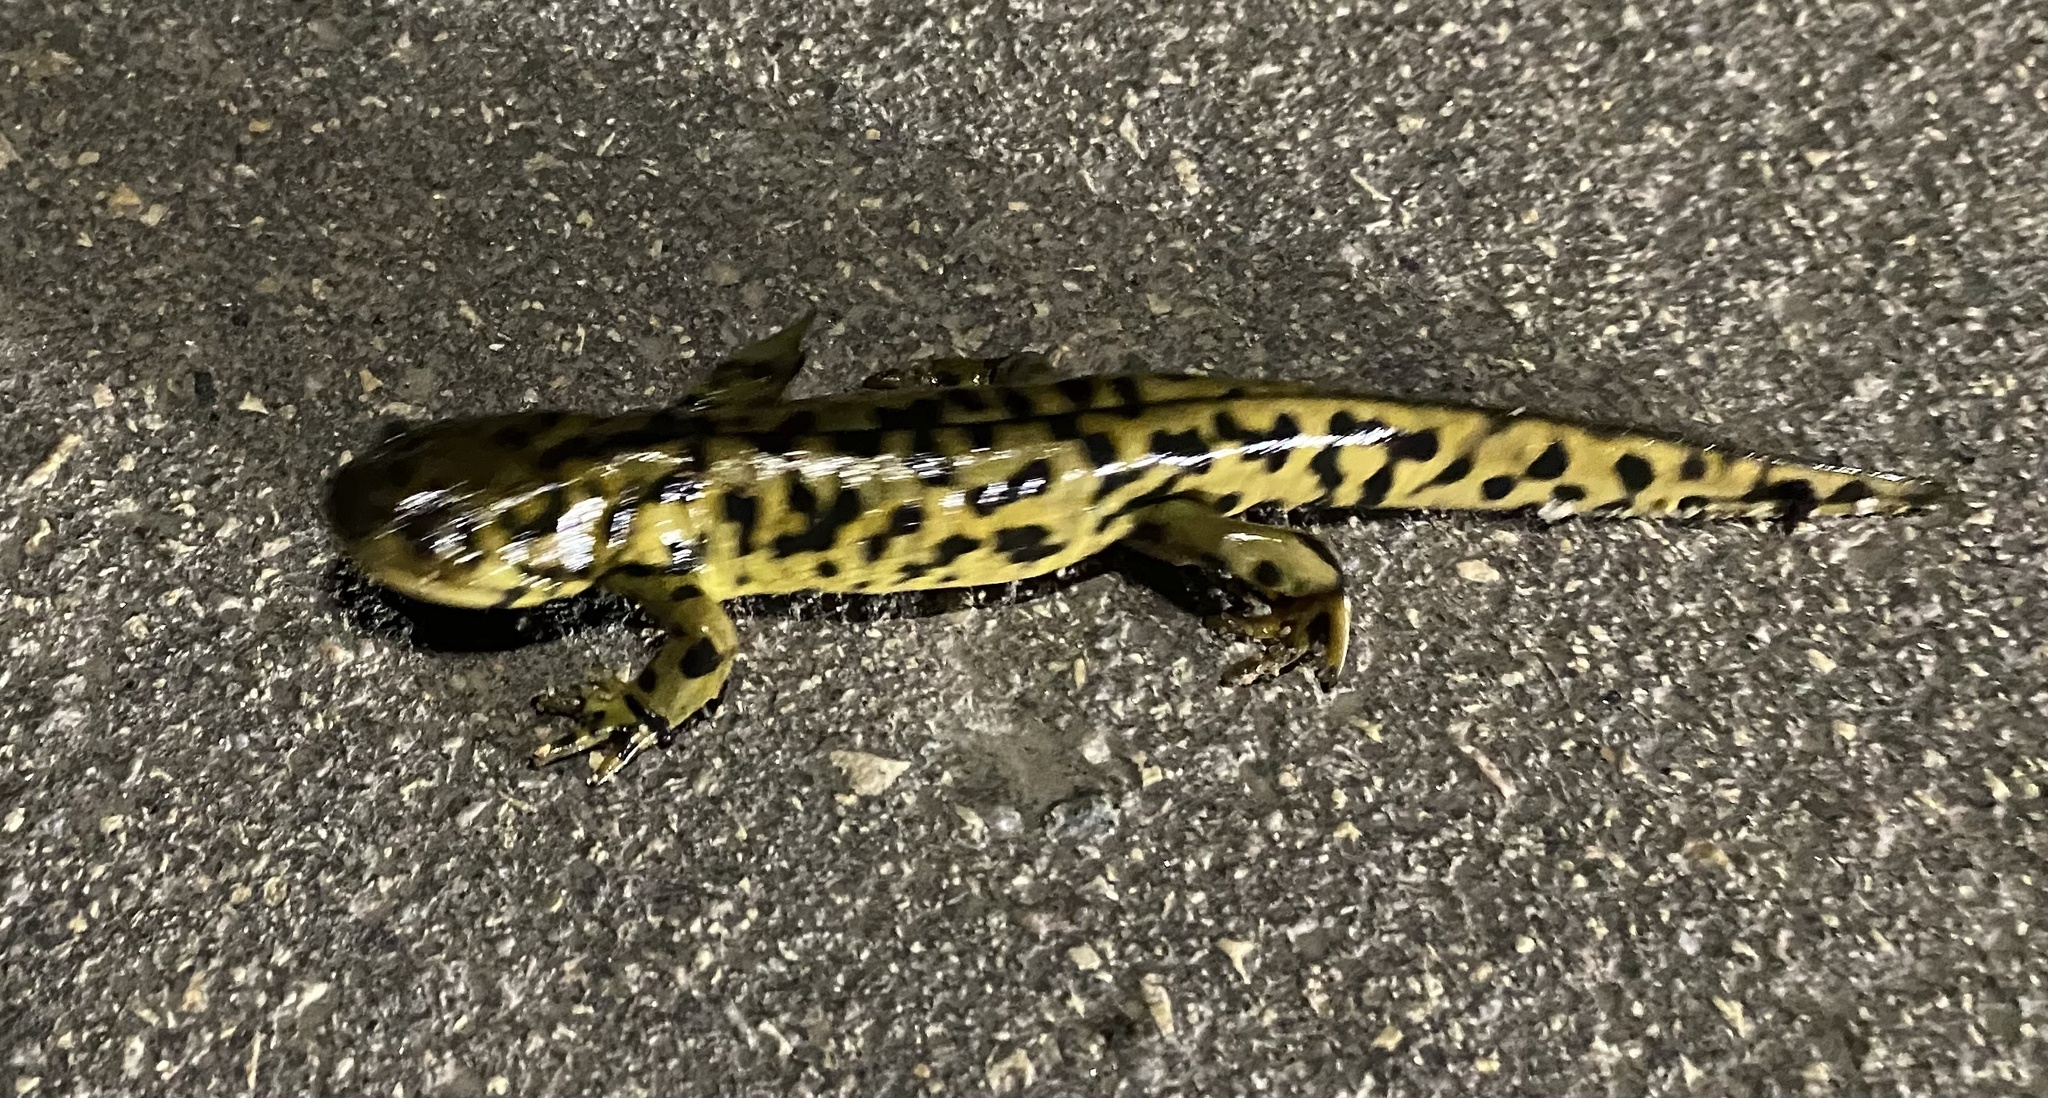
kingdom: Animalia
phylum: Chordata
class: Amphibia
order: Caudata
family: Ambystomatidae
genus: Ambystoma
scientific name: Ambystoma mavortium
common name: Western tiger salamander
